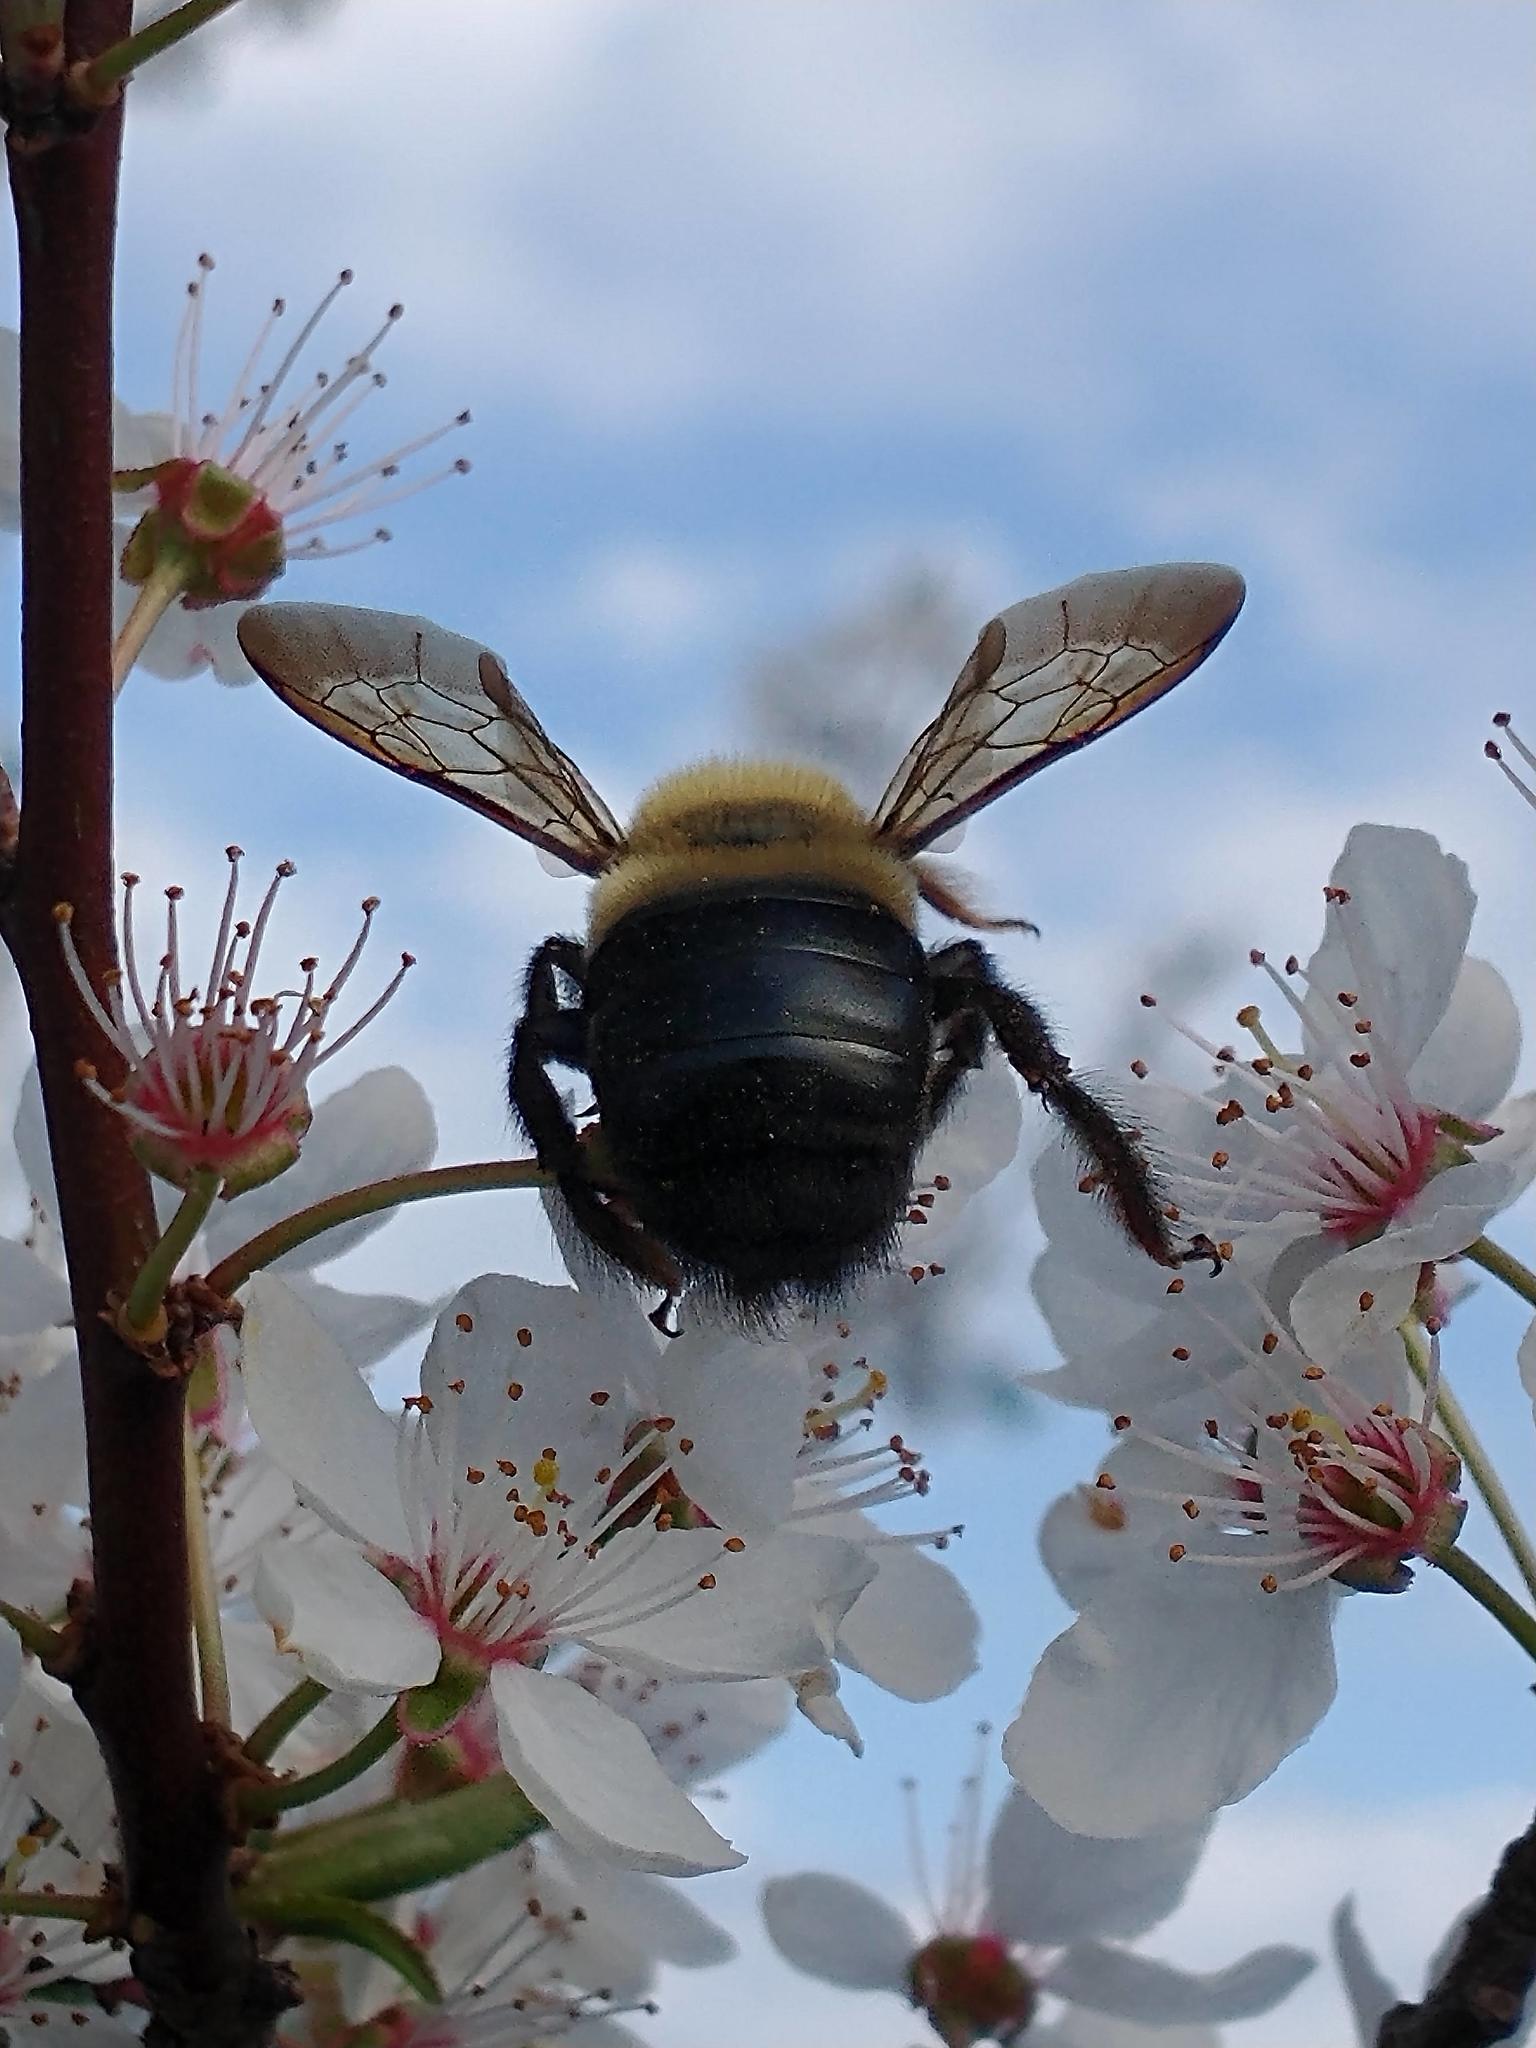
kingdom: Animalia
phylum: Arthropoda
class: Insecta
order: Hymenoptera
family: Apidae
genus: Xylocopa
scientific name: Xylocopa virginica
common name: Carpenter bee
